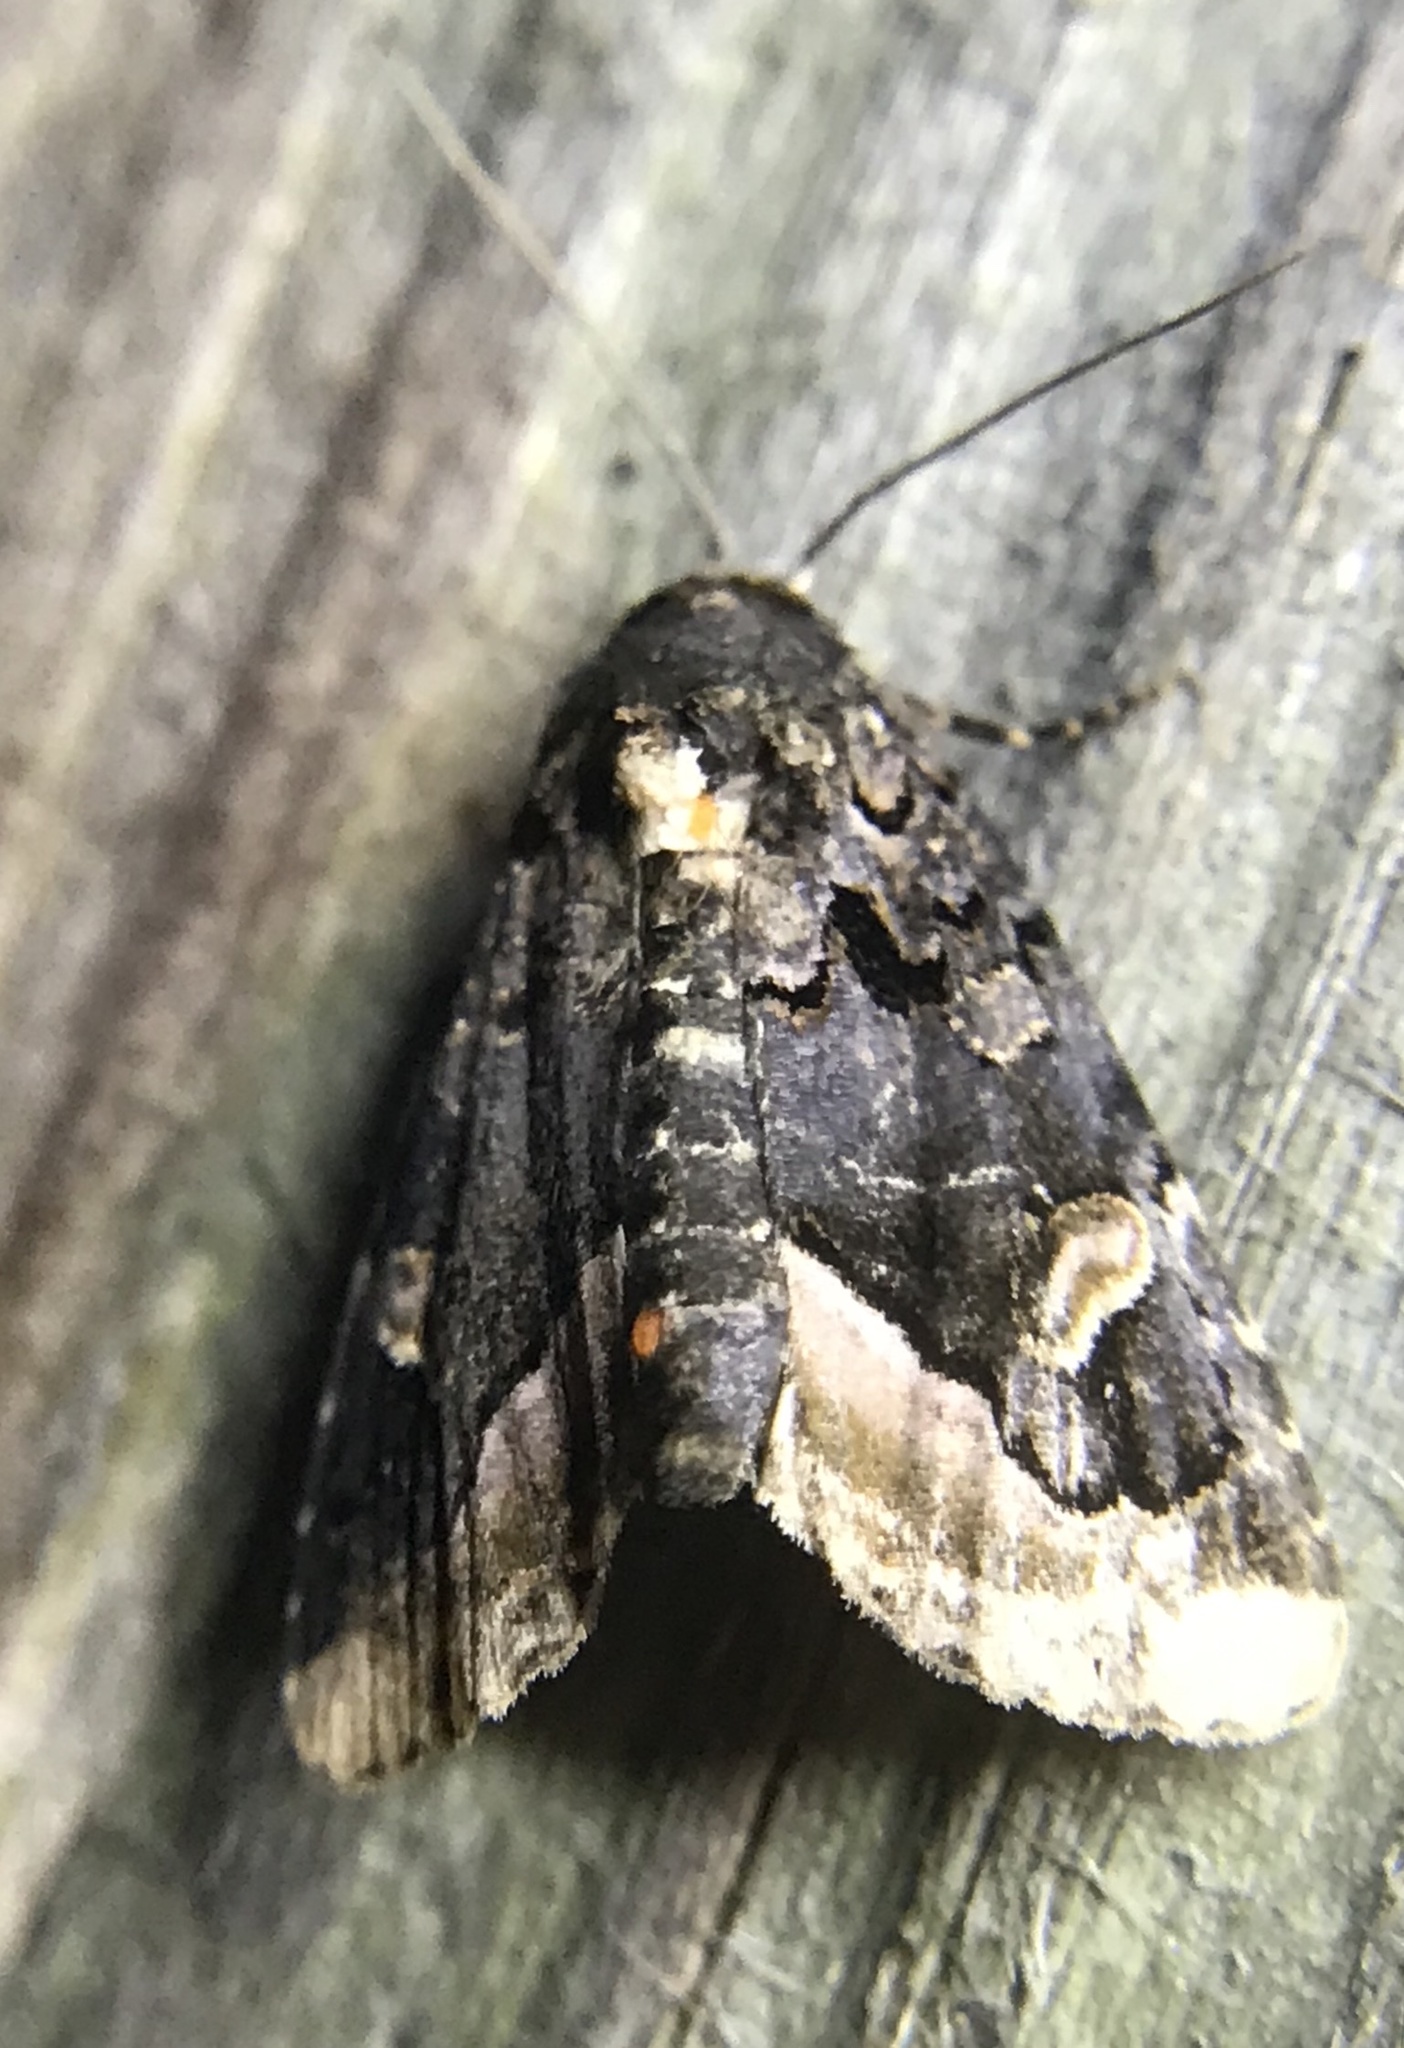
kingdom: Animalia
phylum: Arthropoda
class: Insecta
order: Lepidoptera
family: Noctuidae
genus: Homophoberia
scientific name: Homophoberia apicosa
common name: Black wedge-spot
